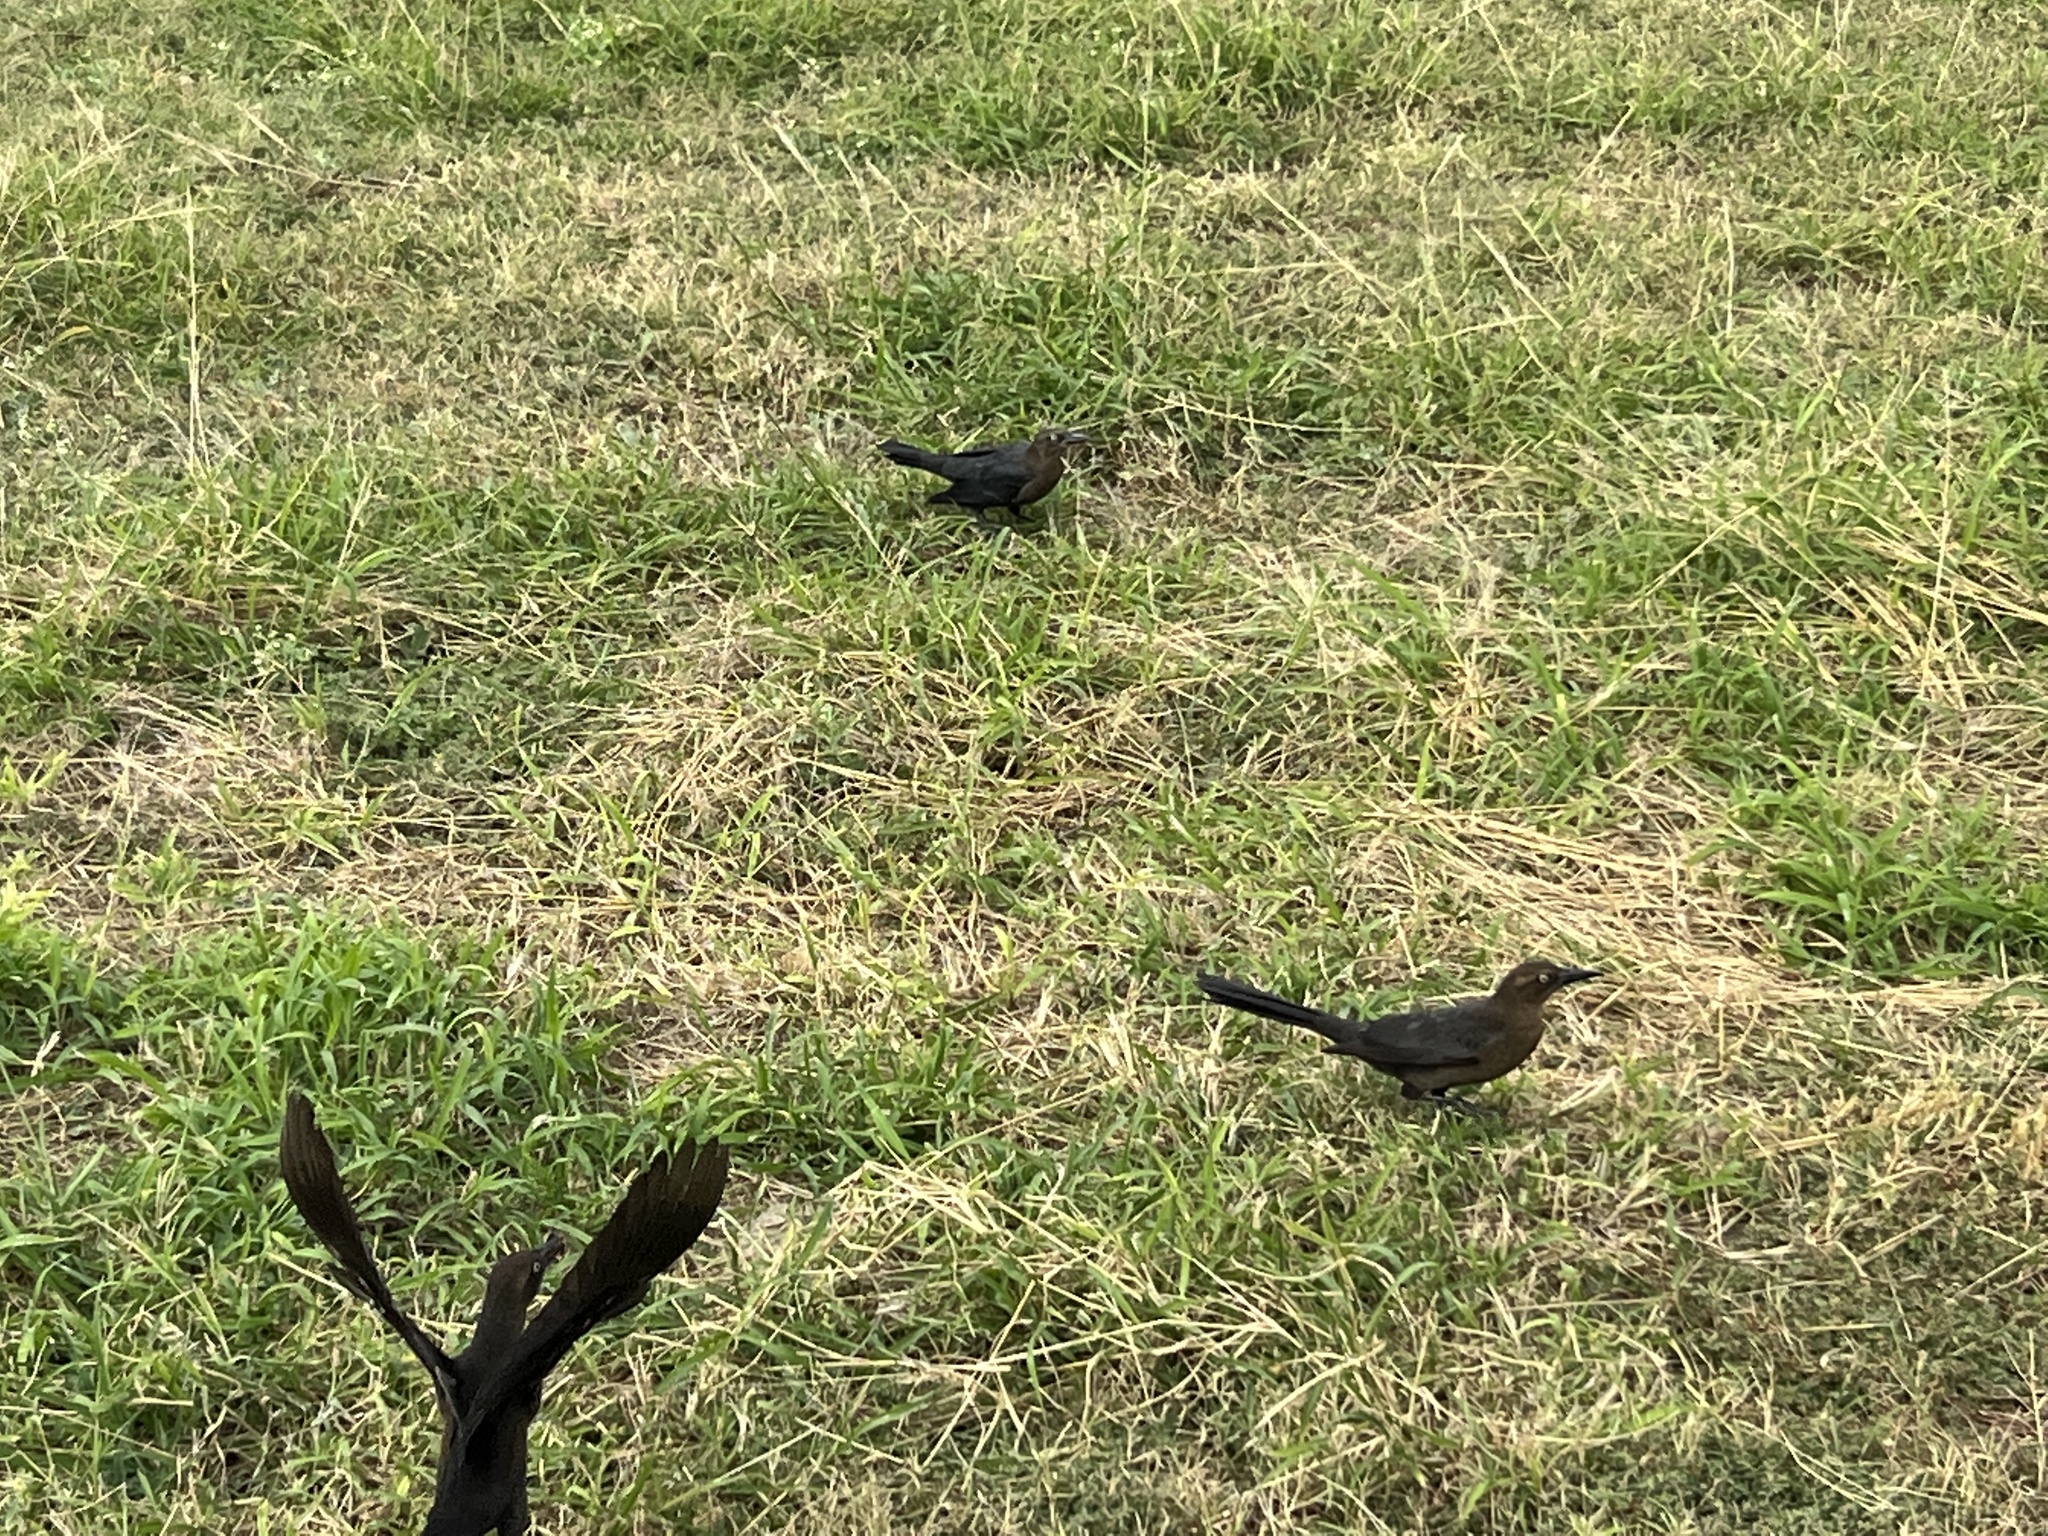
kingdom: Animalia
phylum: Chordata
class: Aves
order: Passeriformes
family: Icteridae
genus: Quiscalus
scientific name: Quiscalus mexicanus
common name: Great-tailed grackle
